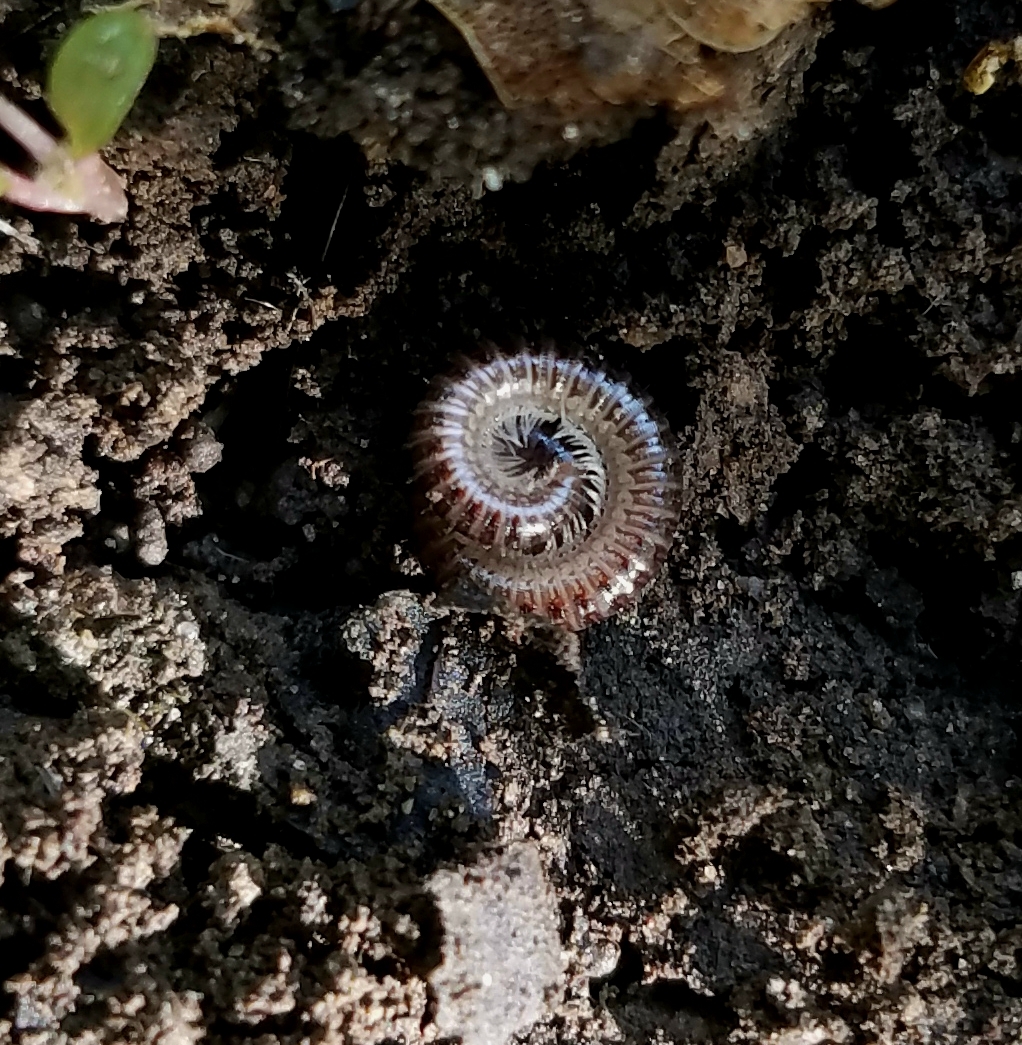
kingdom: Animalia
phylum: Arthropoda
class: Diplopoda
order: Julida
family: Julidae
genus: Ophyiulus
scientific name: Ophyiulus pilosus
